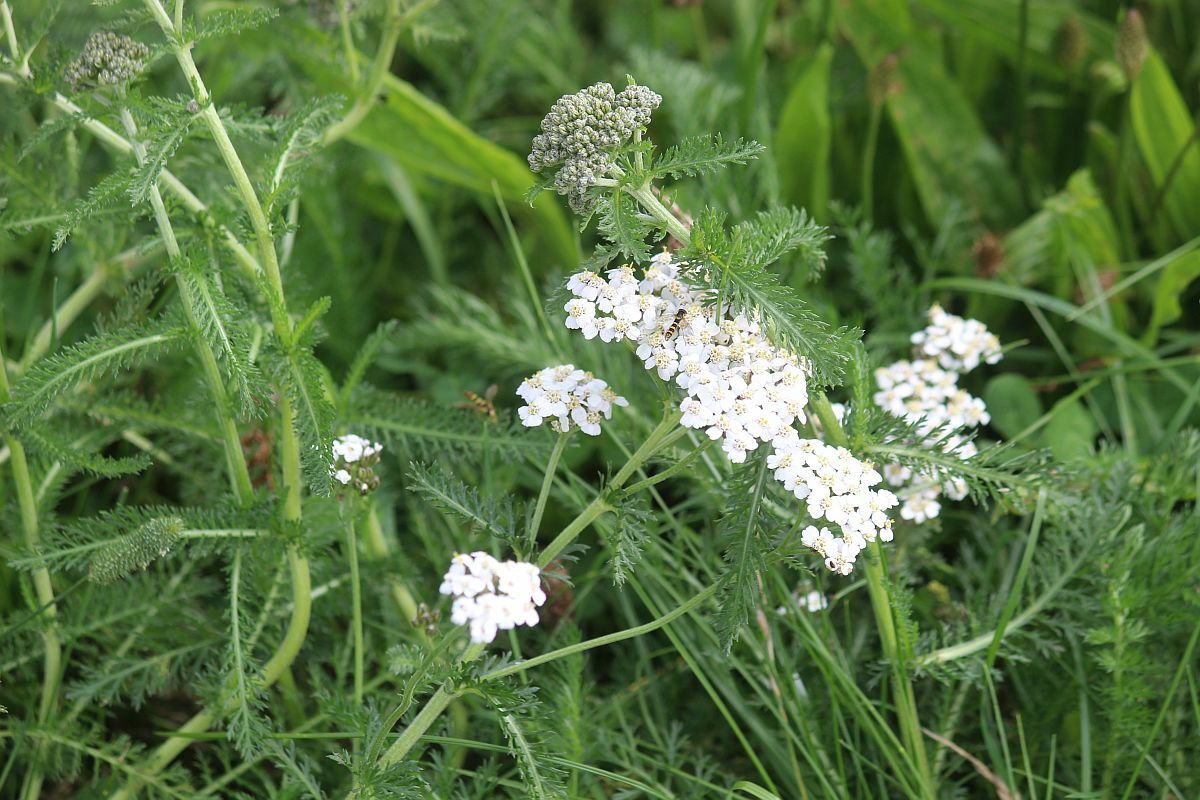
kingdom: Plantae
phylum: Tracheophyta
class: Magnoliopsida
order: Asterales
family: Asteraceae
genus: Achillea
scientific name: Achillea millefolium
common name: Yarrow
